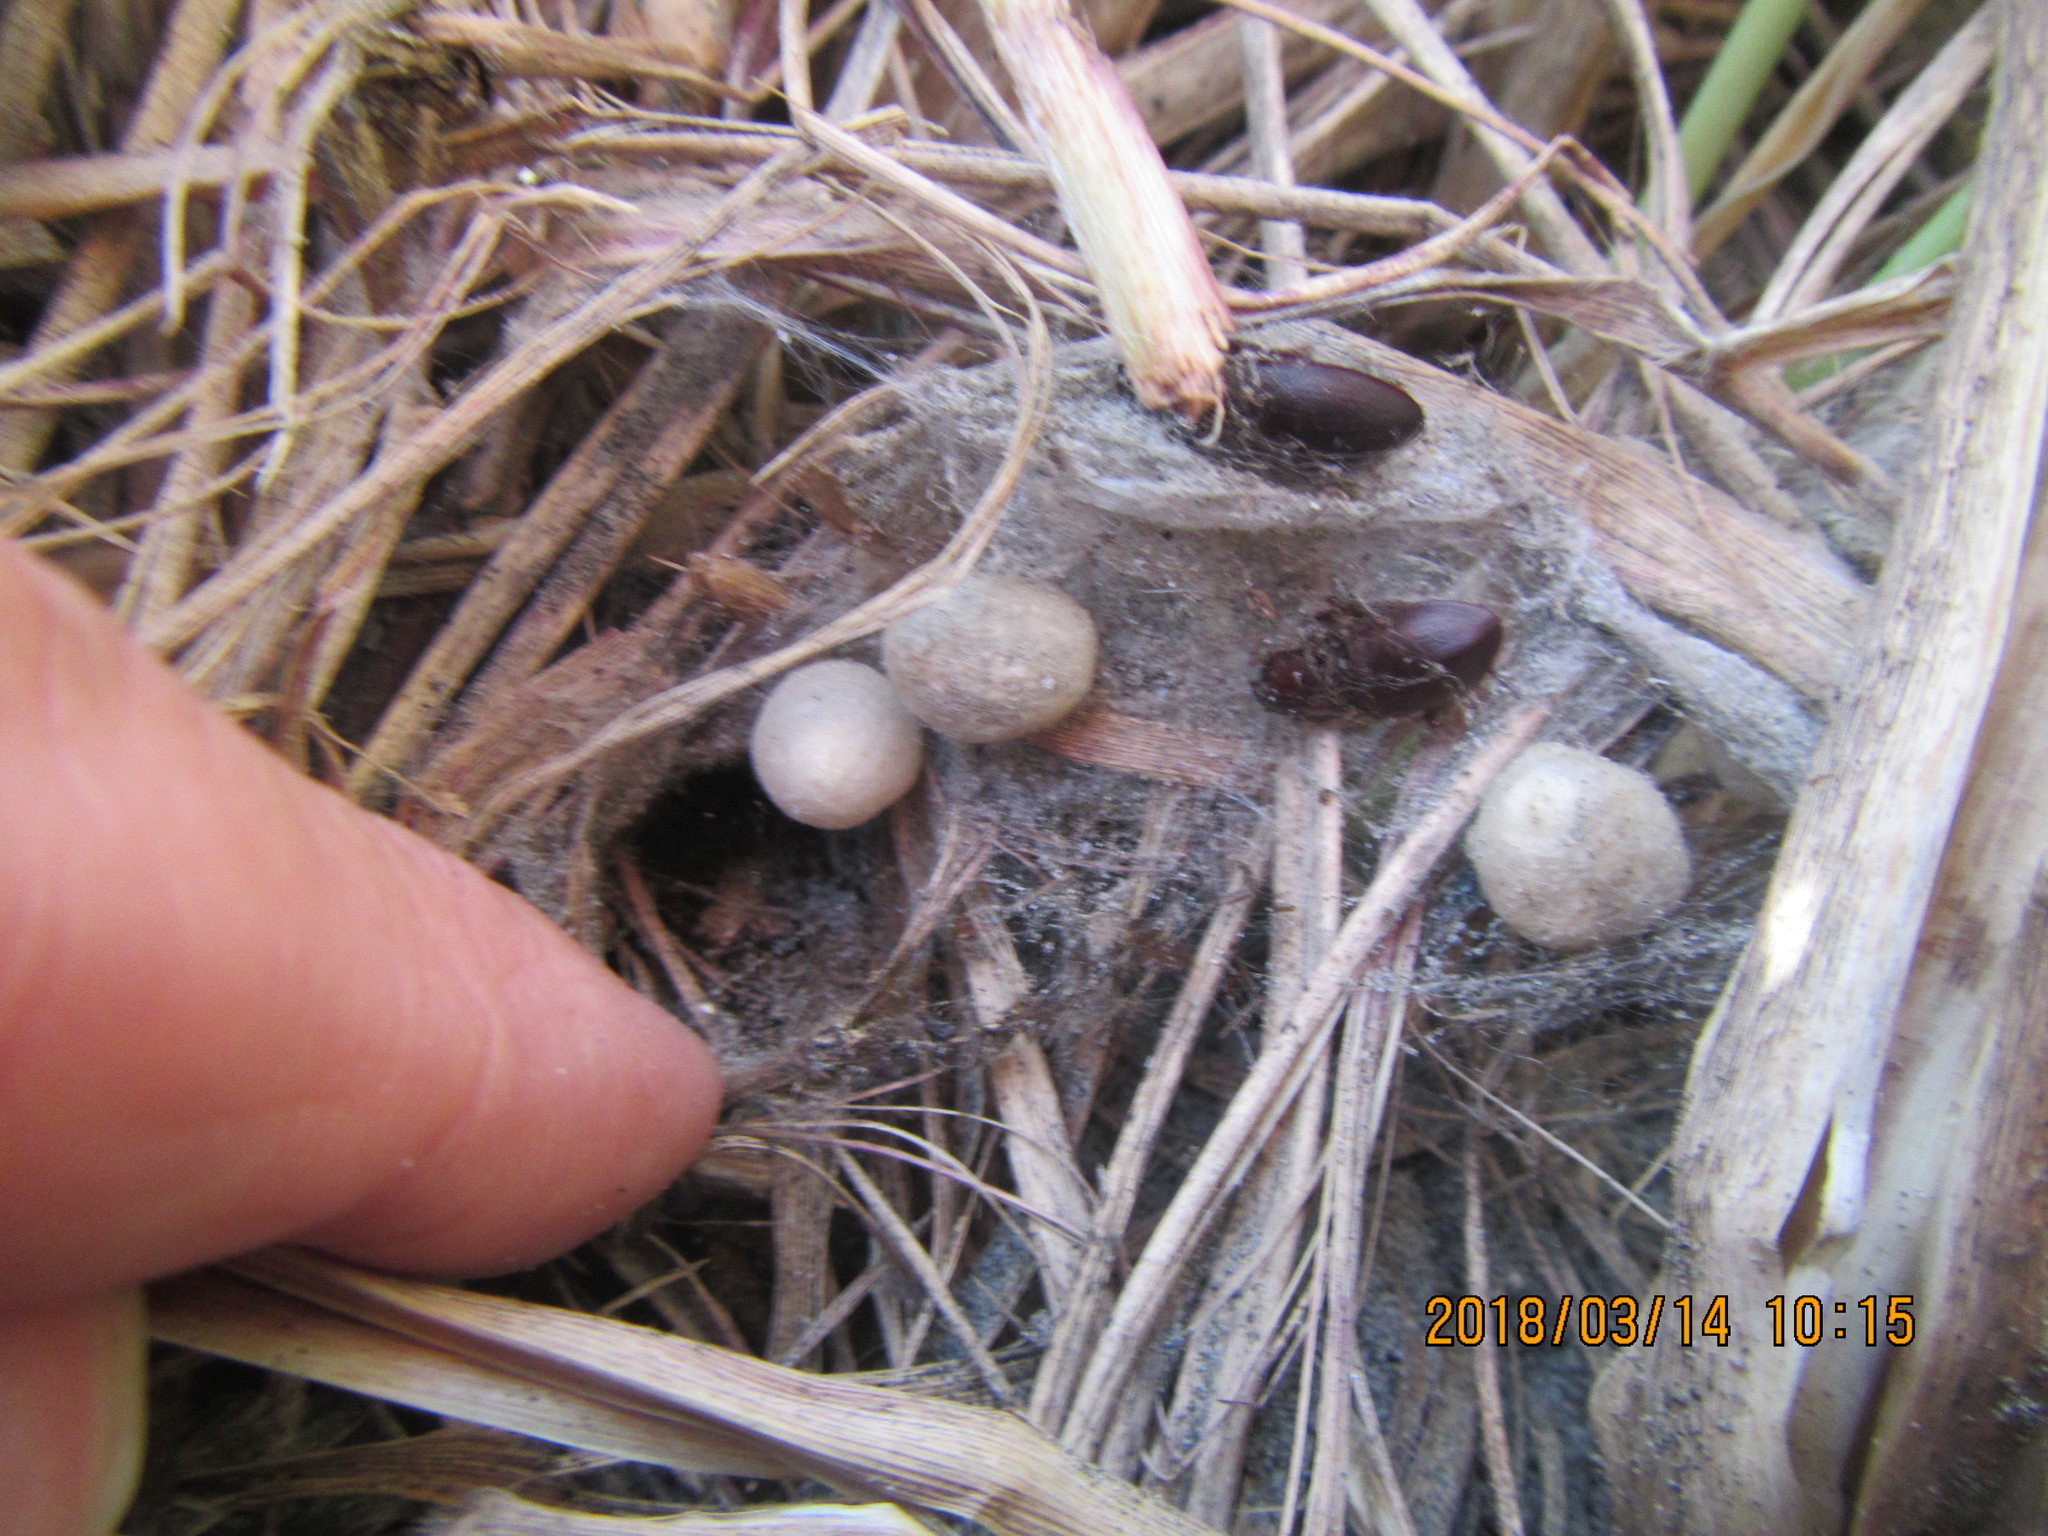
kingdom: Animalia
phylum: Arthropoda
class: Arachnida
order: Araneae
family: Theridiidae
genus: Latrodectus
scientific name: Latrodectus katipo
